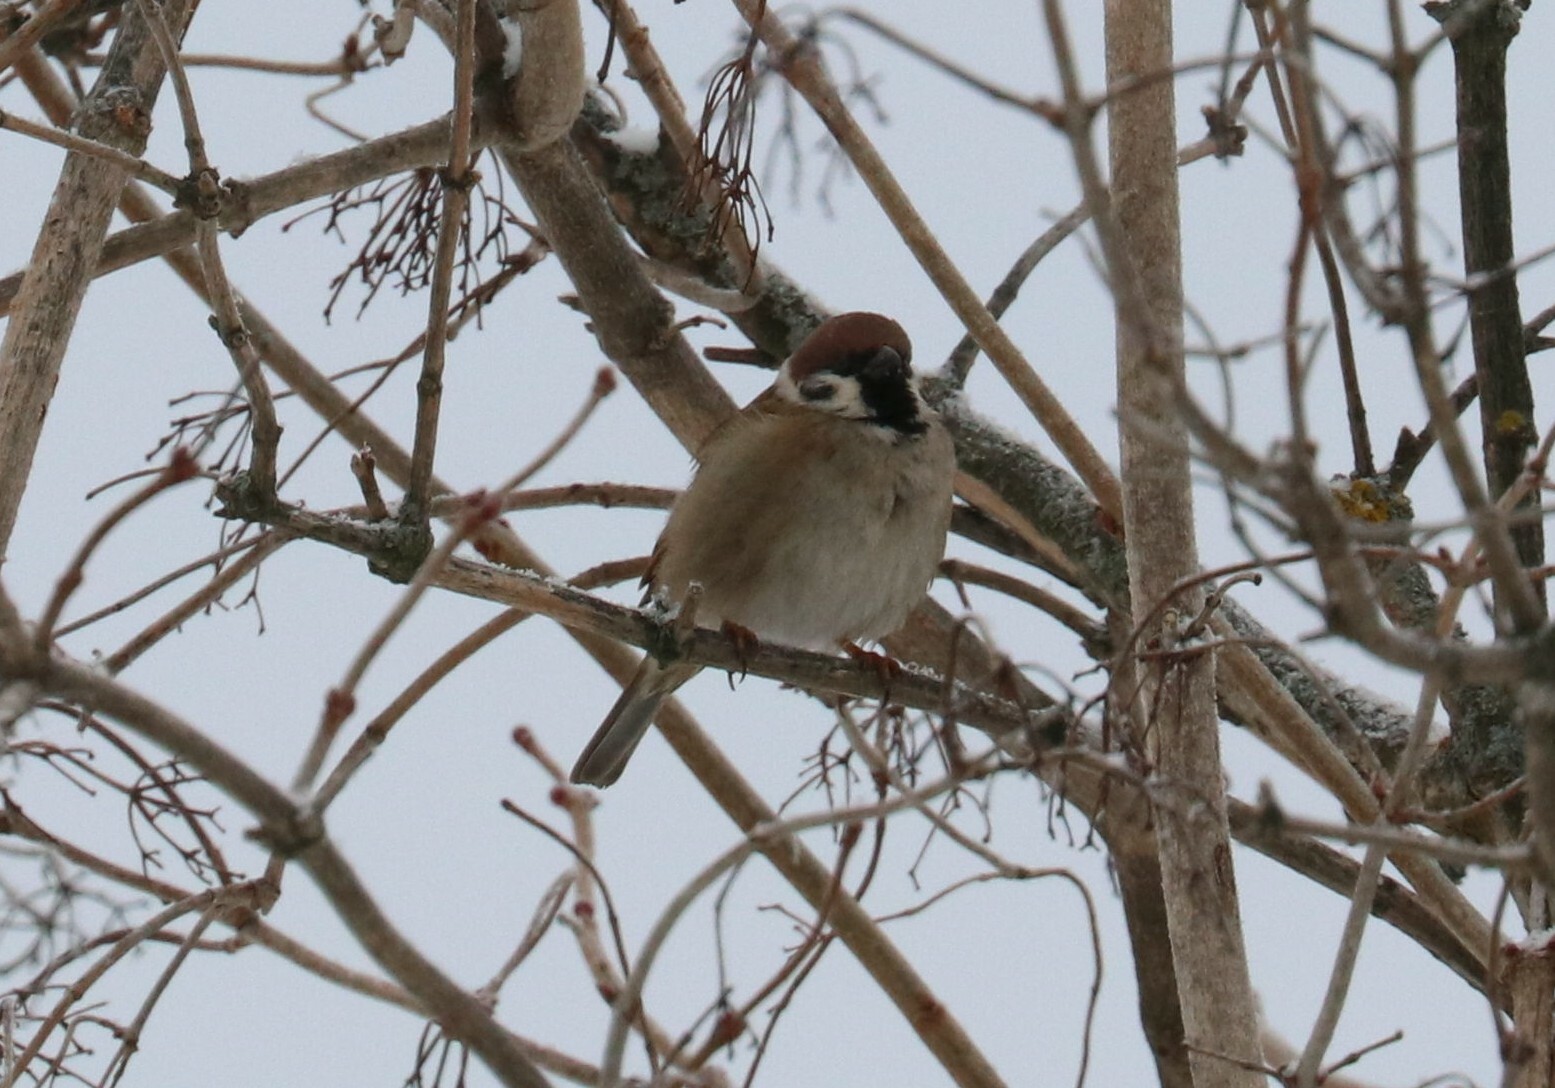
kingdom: Animalia
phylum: Chordata
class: Aves
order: Passeriformes
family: Passeridae
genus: Passer
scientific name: Passer montanus
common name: Eurasian tree sparrow
